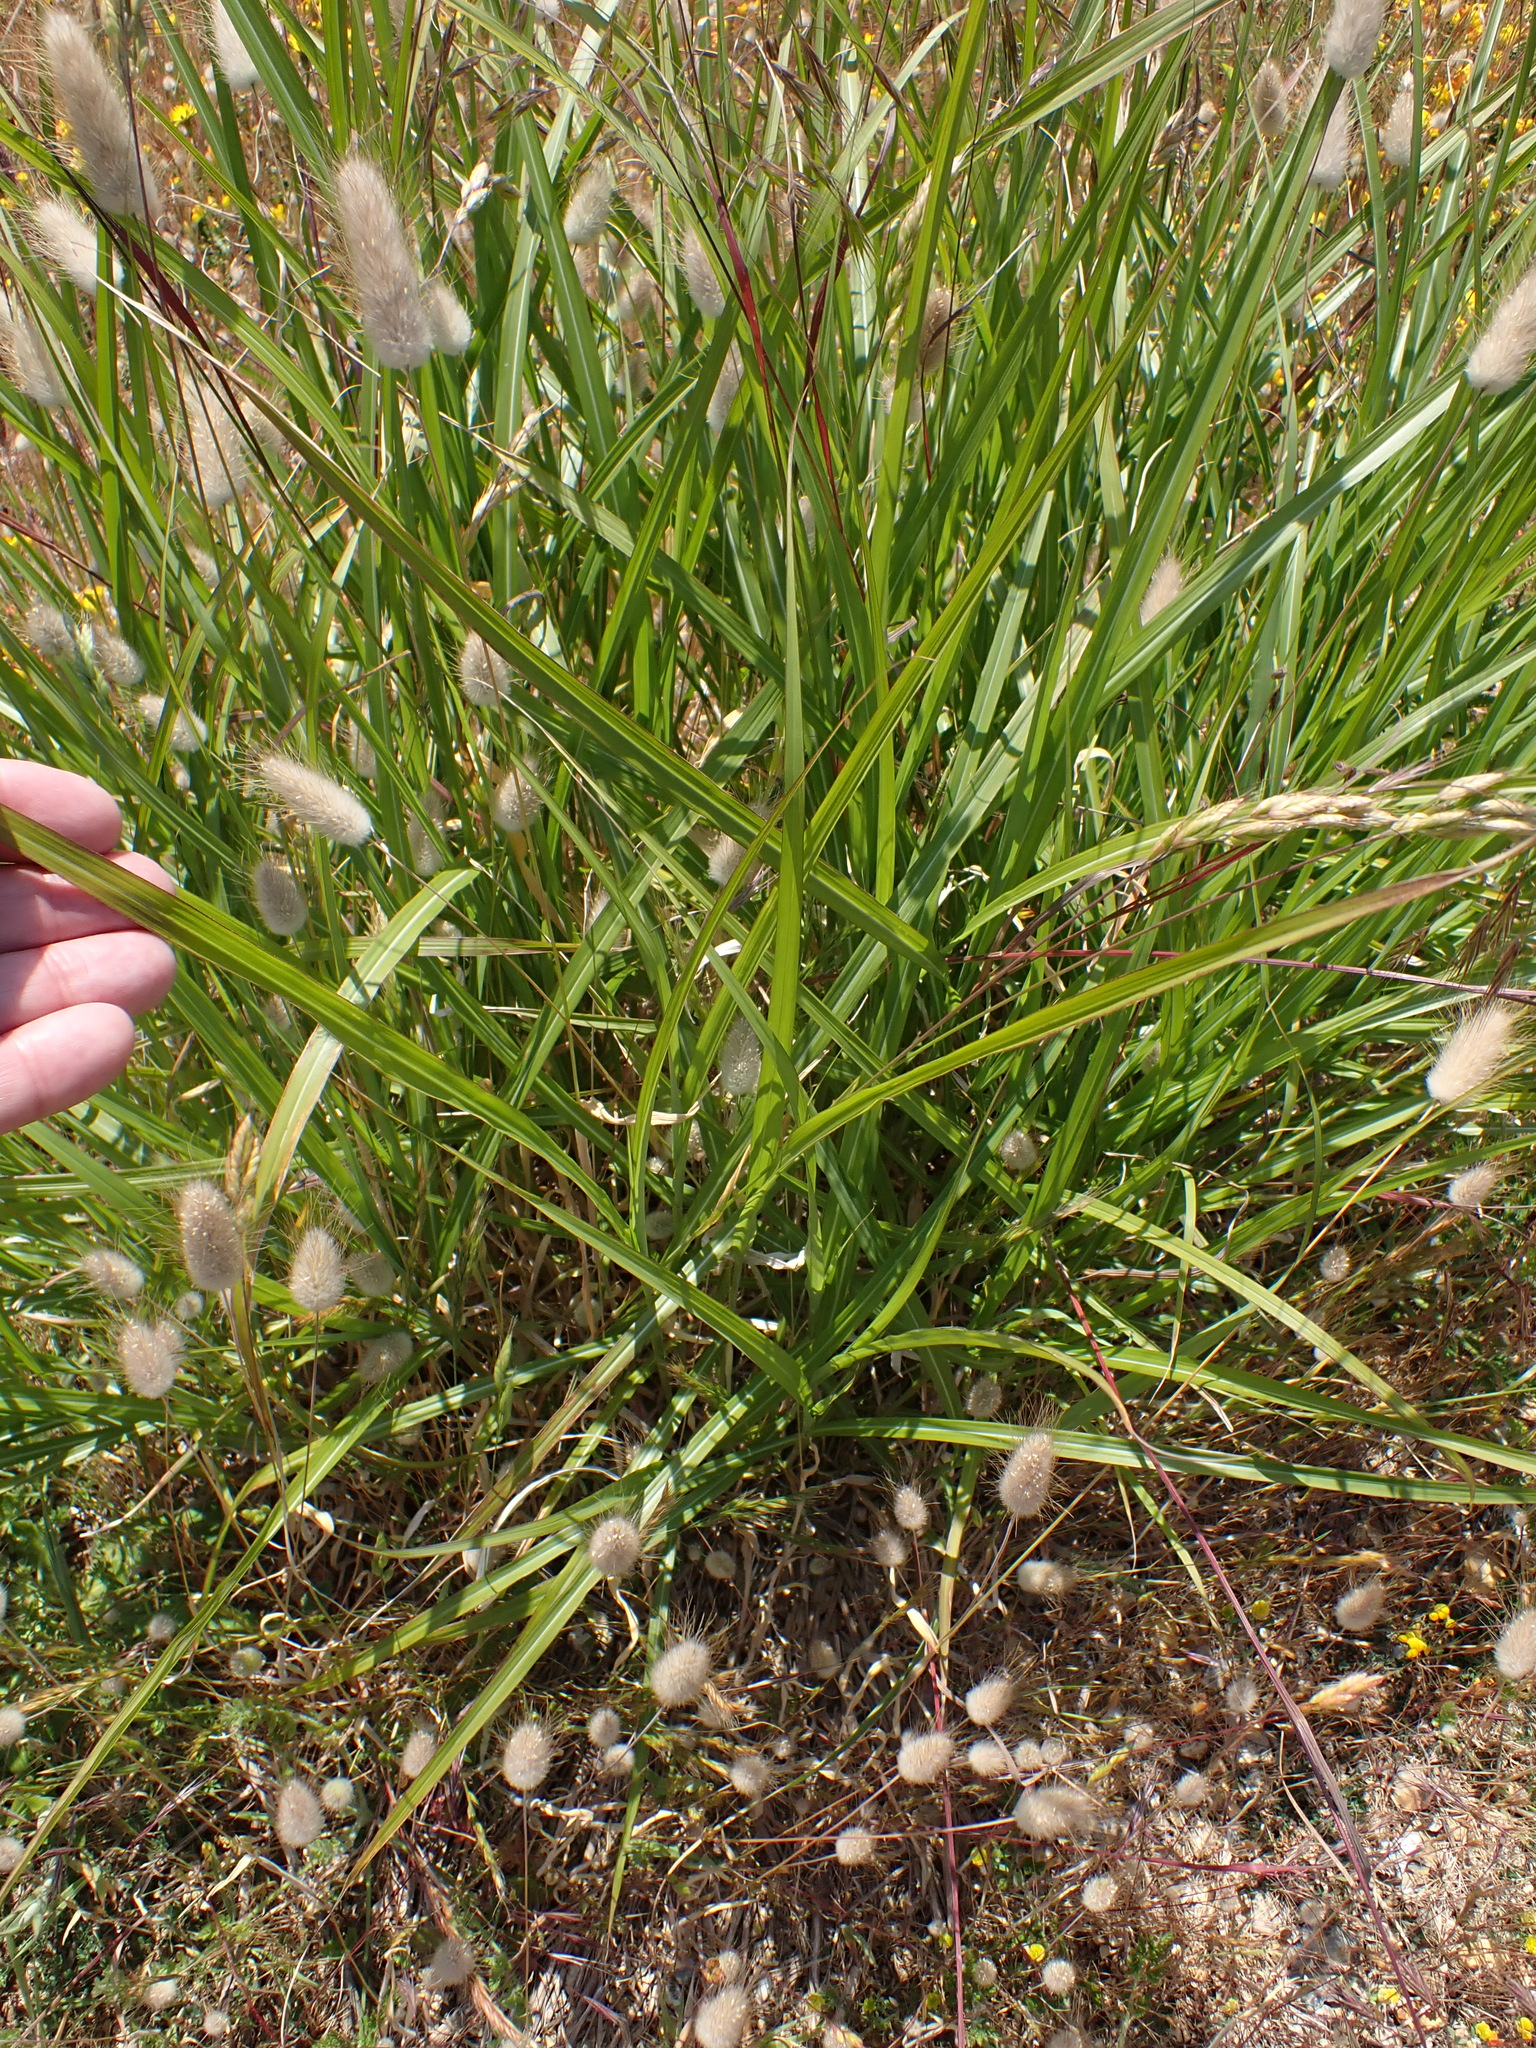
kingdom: Plantae
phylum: Tracheophyta
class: Liliopsida
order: Poales
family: Poaceae
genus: Cortaderia
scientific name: Cortaderia selloana
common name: Uruguayan pampas grass
